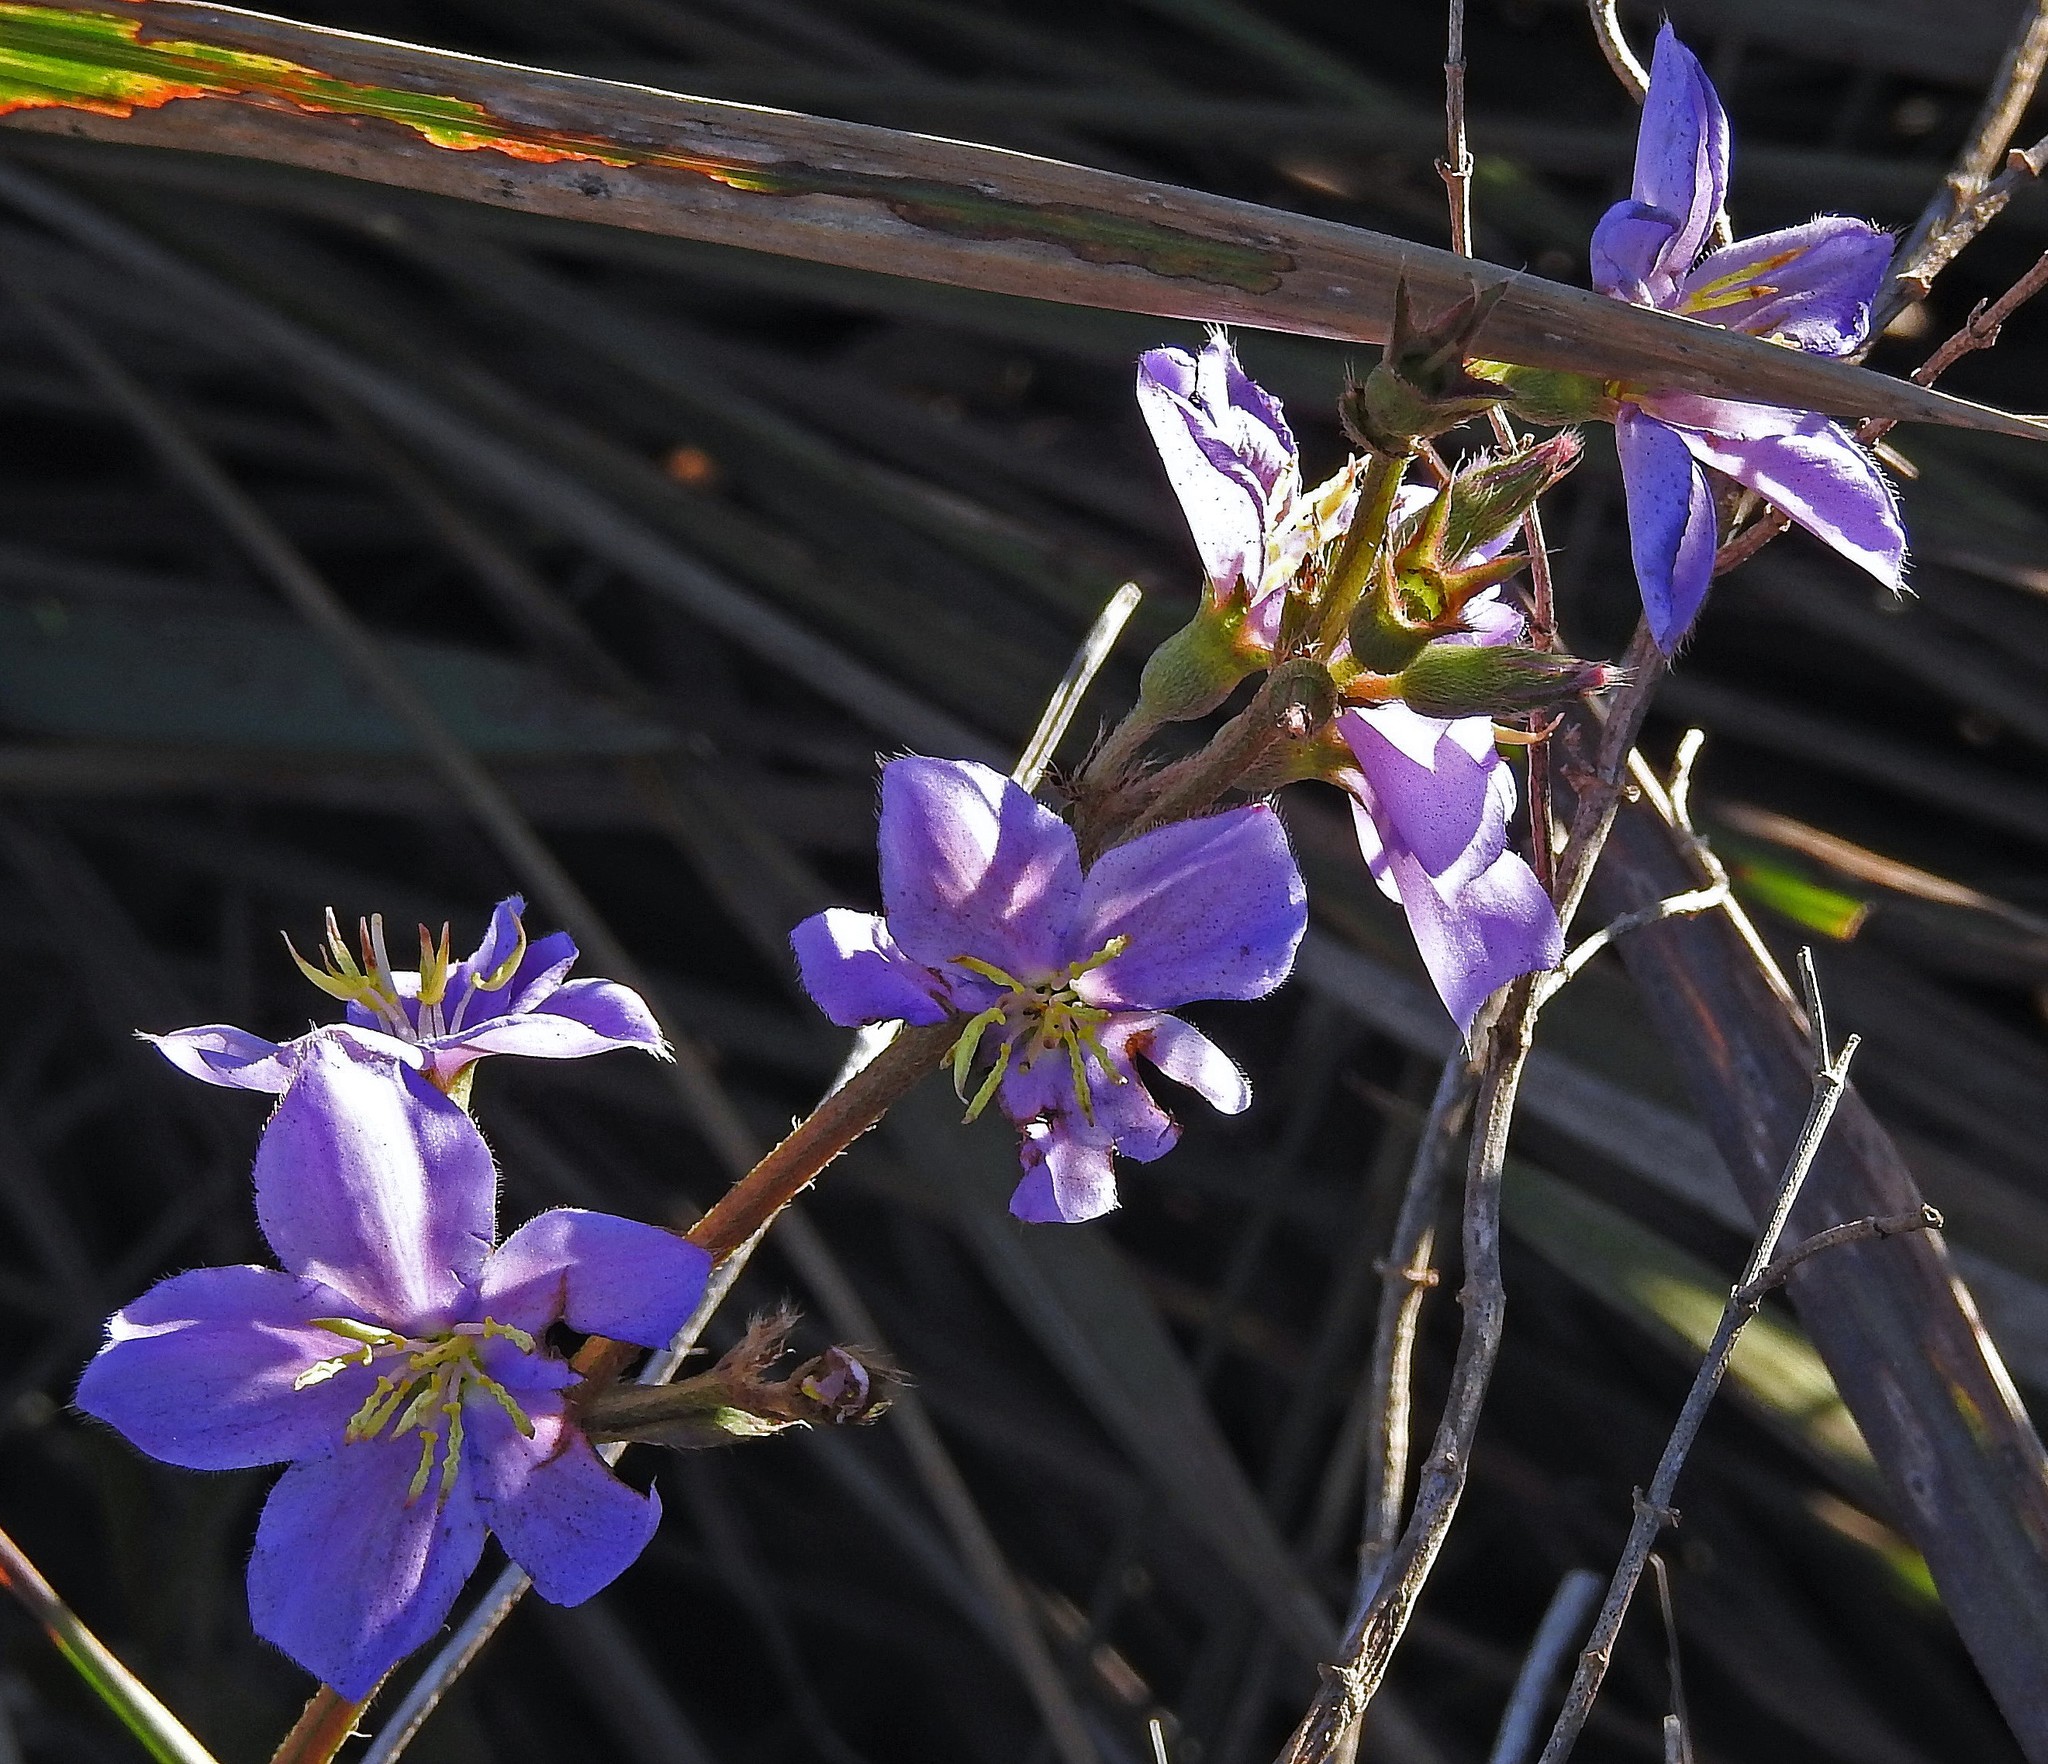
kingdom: Plantae
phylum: Tracheophyta
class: Magnoliopsida
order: Myrtales
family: Melastomataceae
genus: Chaetogastra
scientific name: Chaetogastra gracilis
